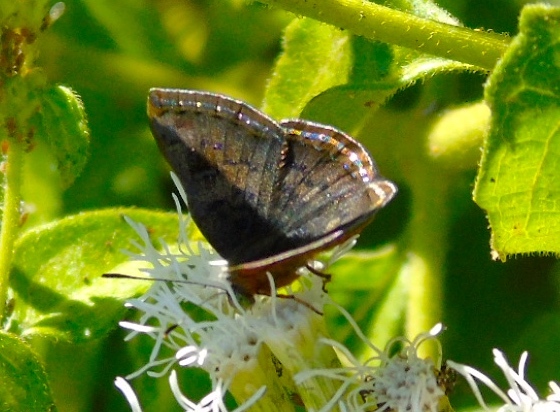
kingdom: Animalia
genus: Caria
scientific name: Caria ino
